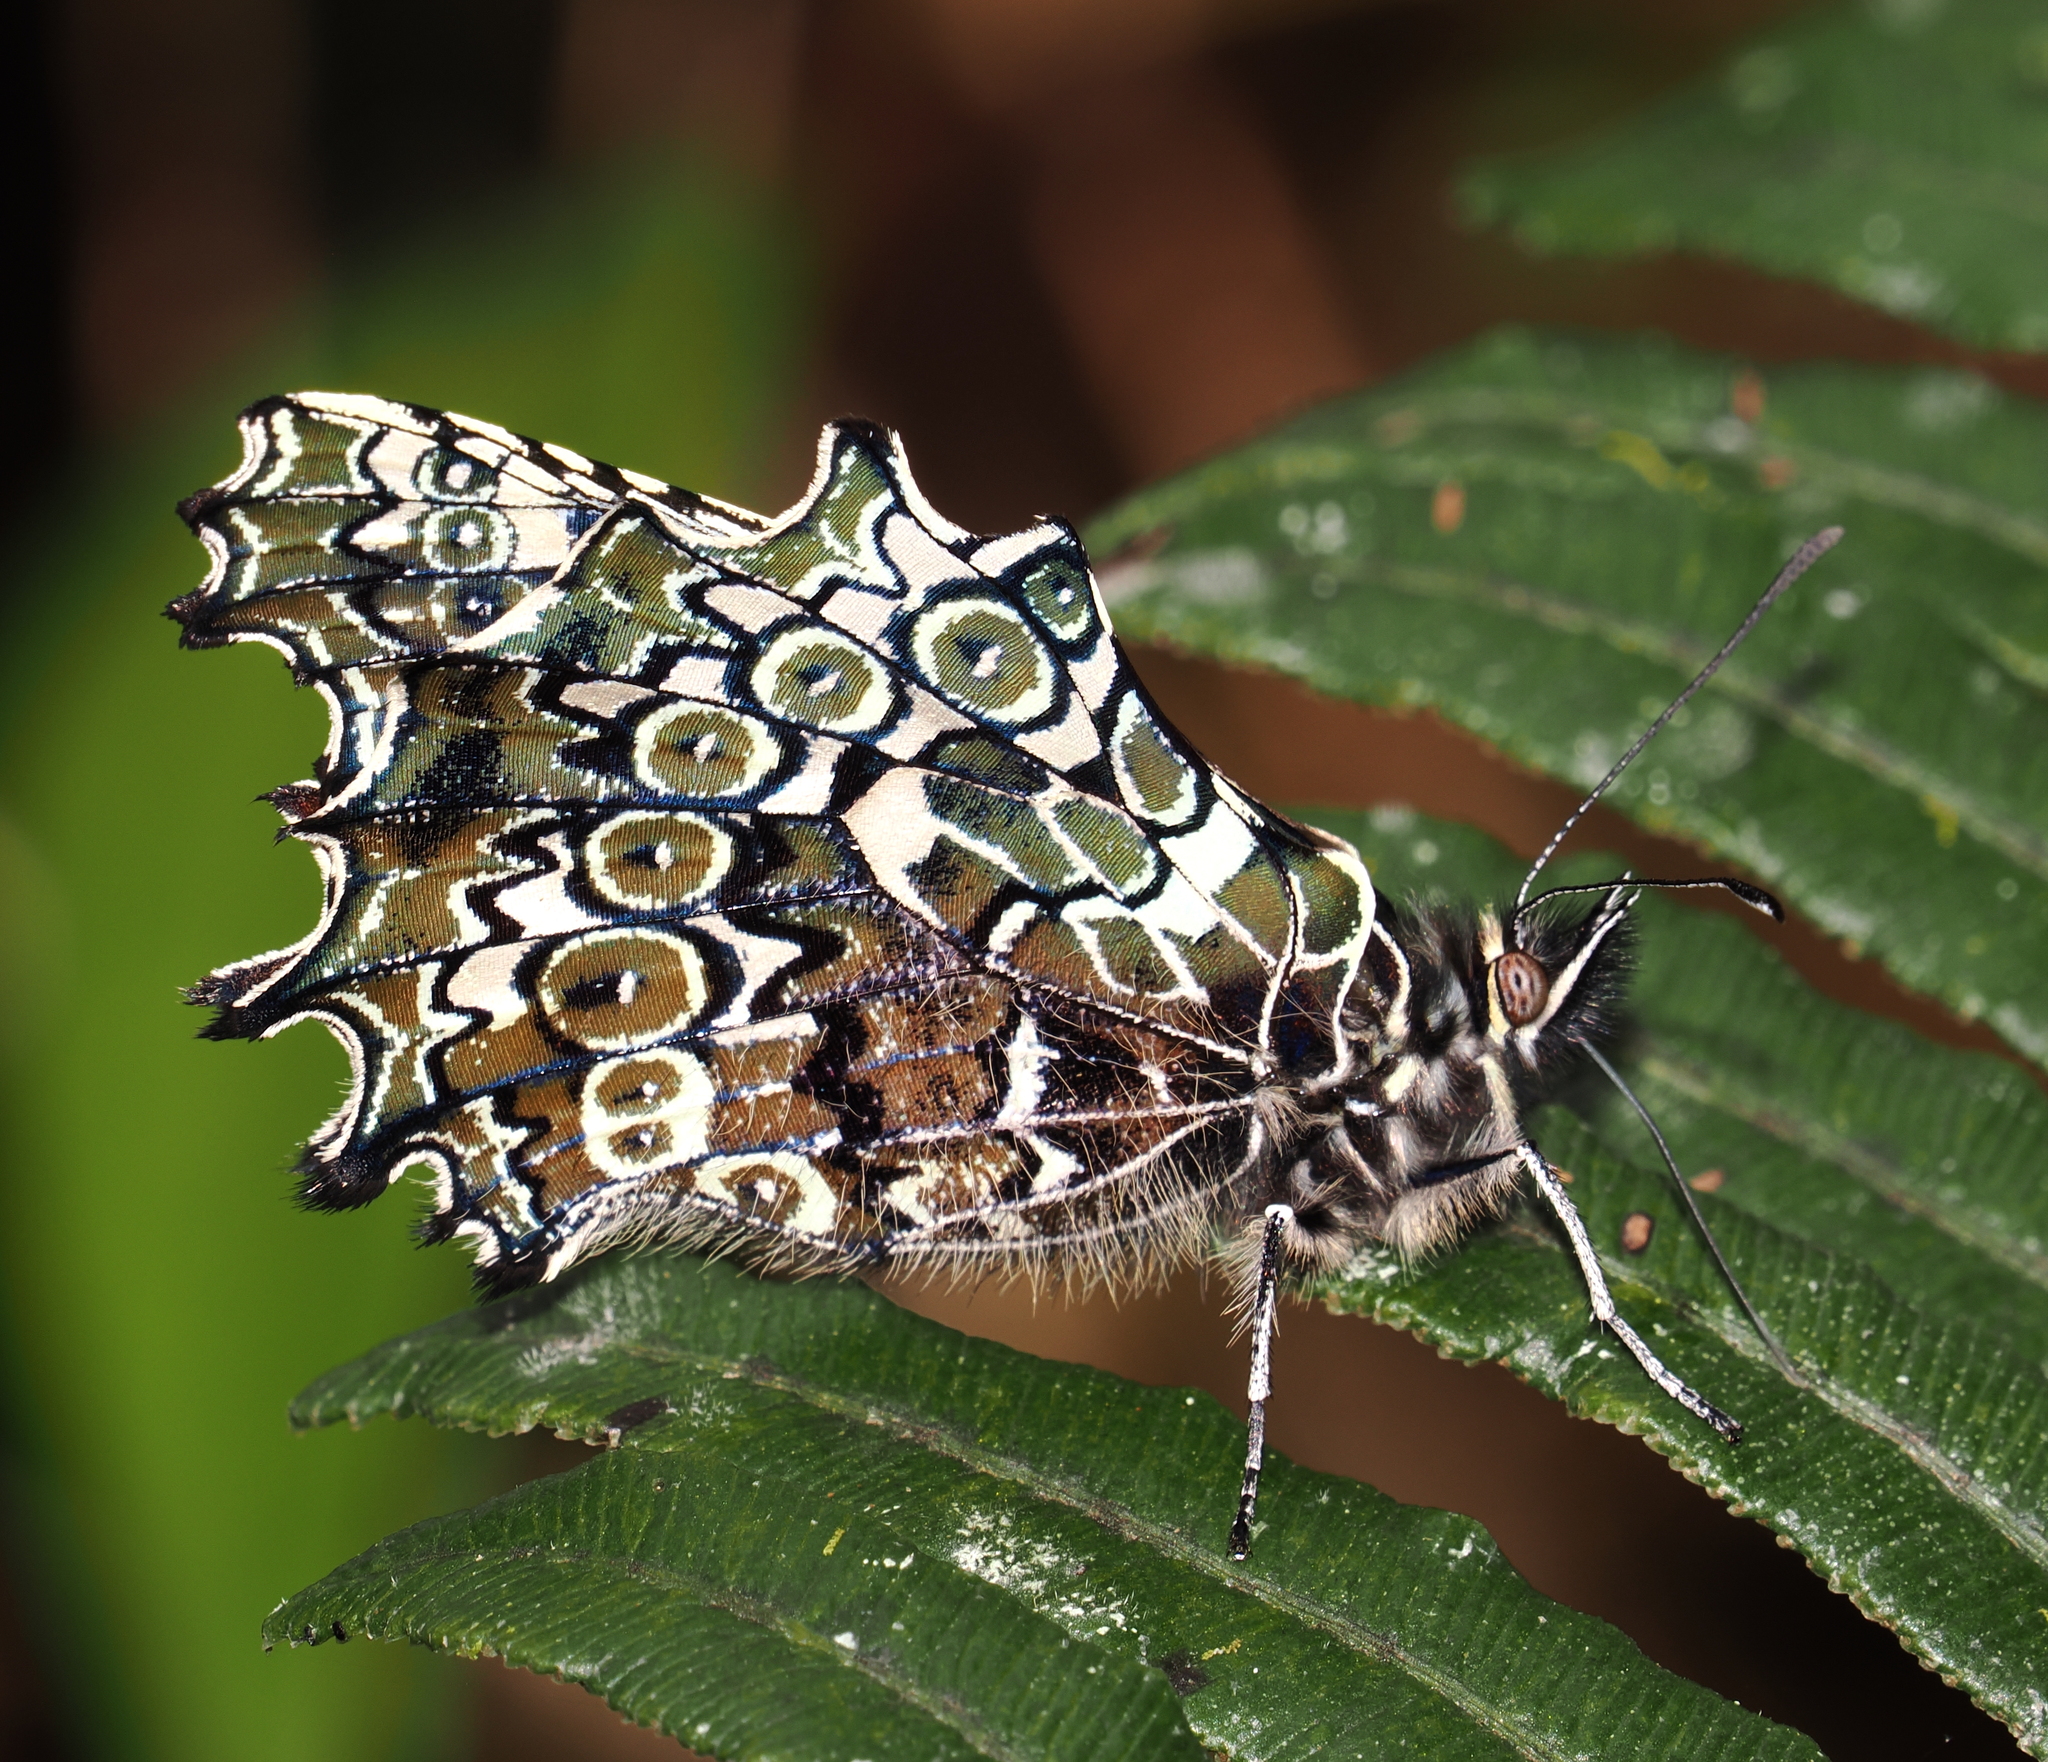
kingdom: Animalia
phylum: Arthropoda
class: Insecta
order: Lepidoptera
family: Nymphalidae
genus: Junea
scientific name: Junea doraete
